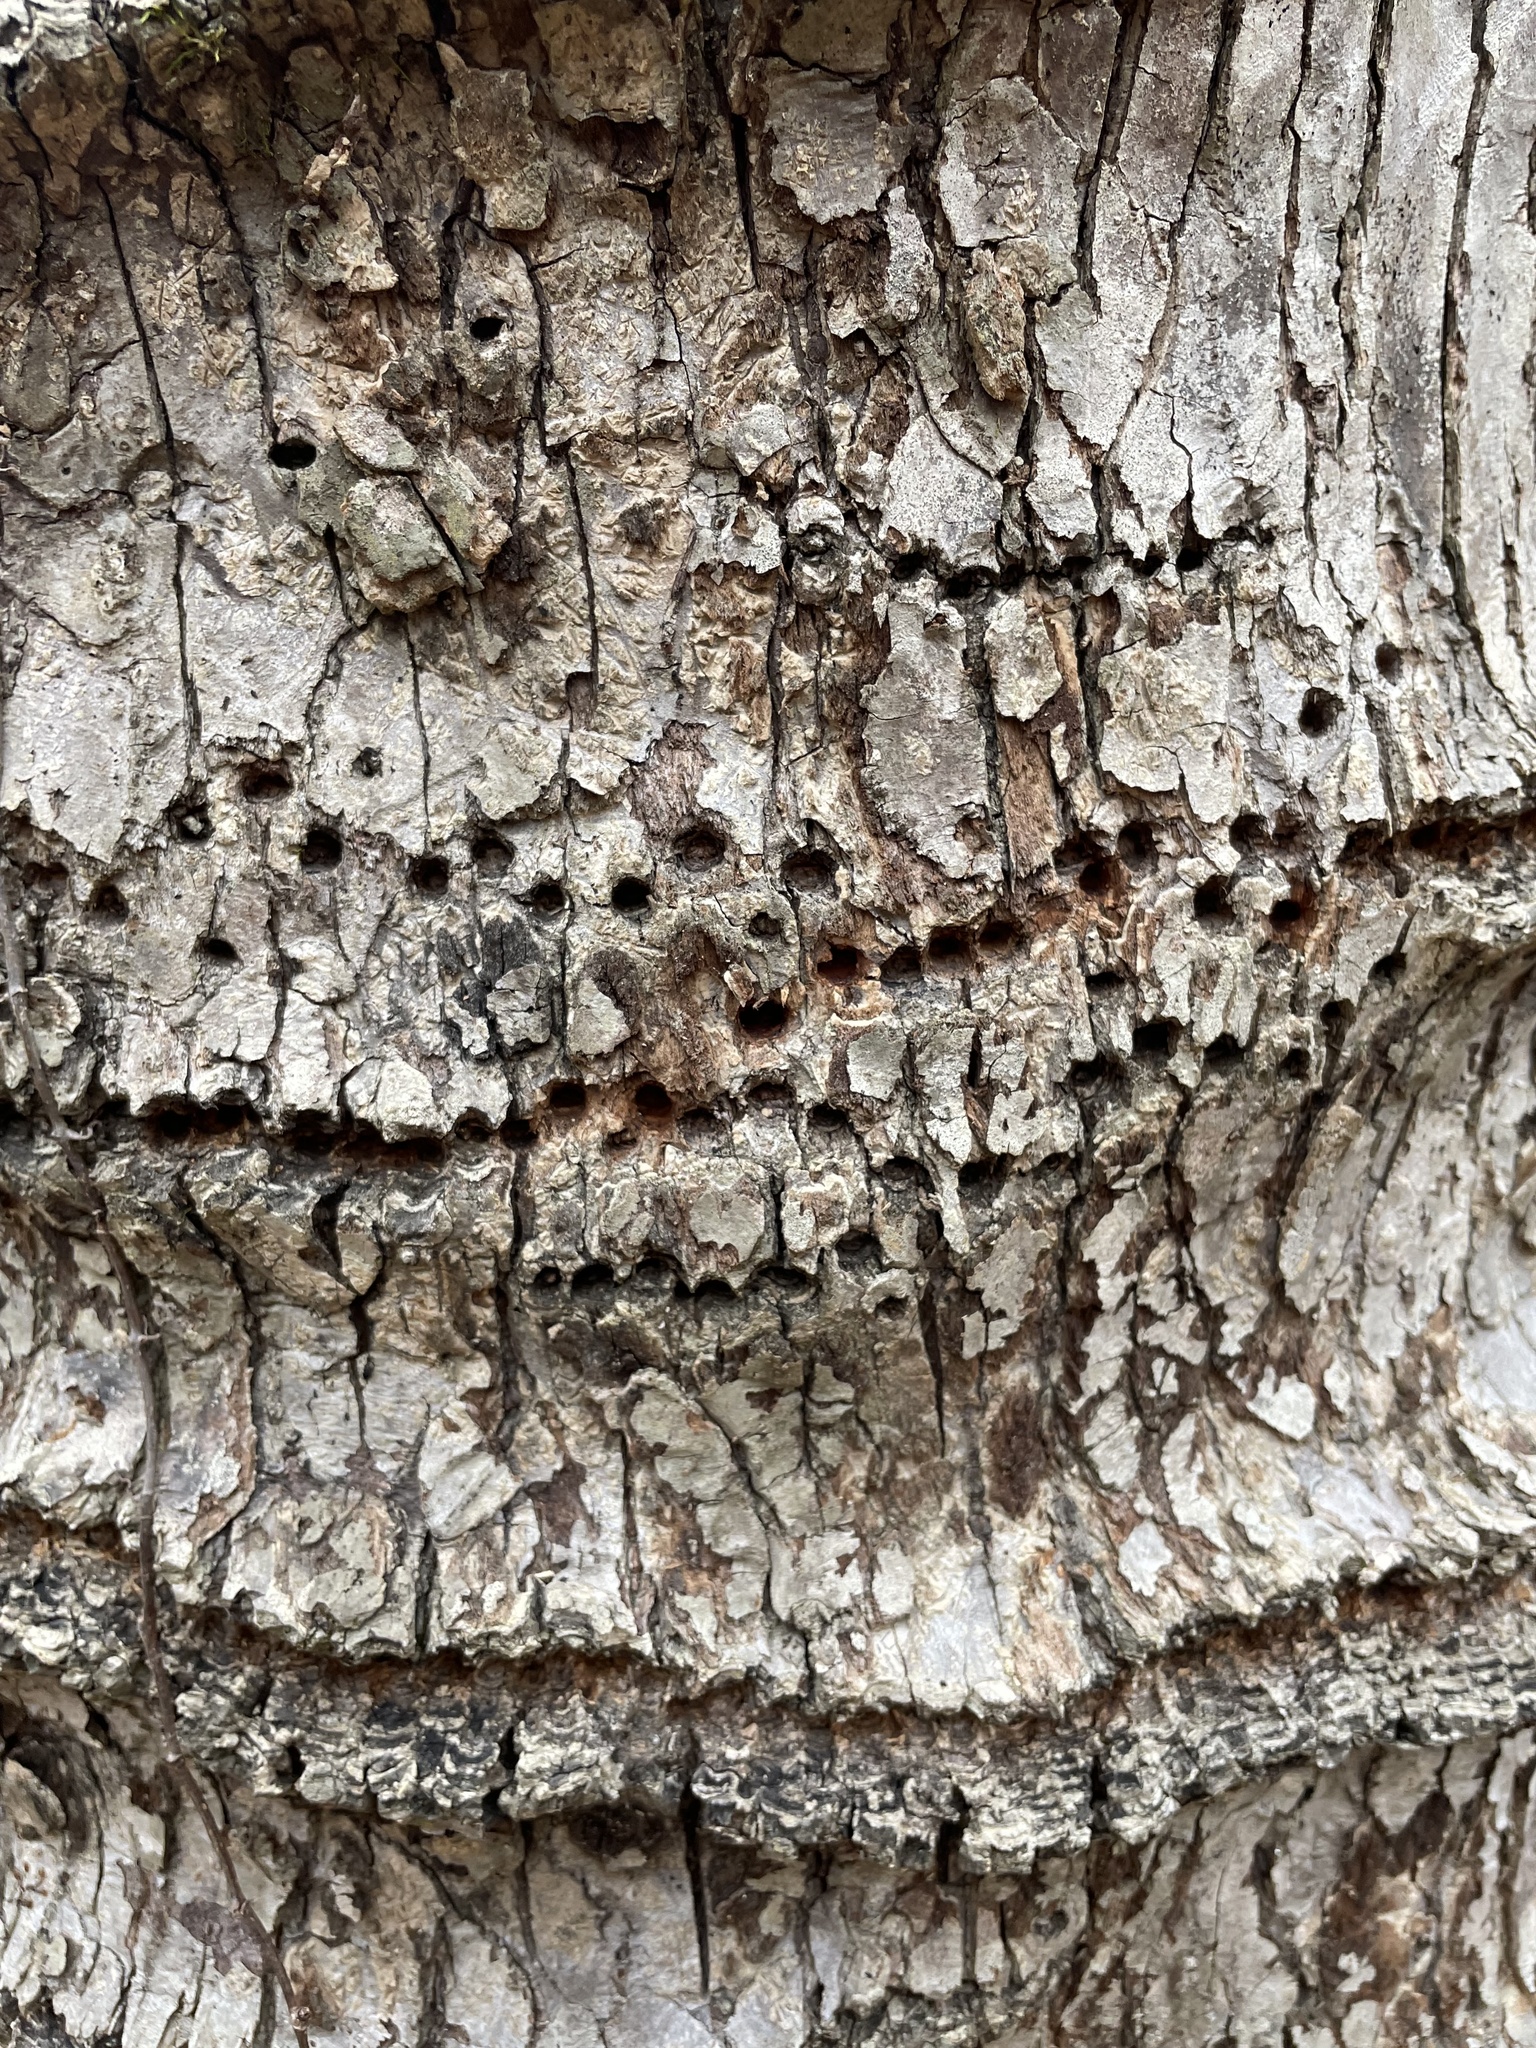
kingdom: Animalia
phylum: Chordata
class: Aves
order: Piciformes
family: Picidae
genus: Sphyrapicus
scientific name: Sphyrapicus varius
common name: Yellow-bellied sapsucker
